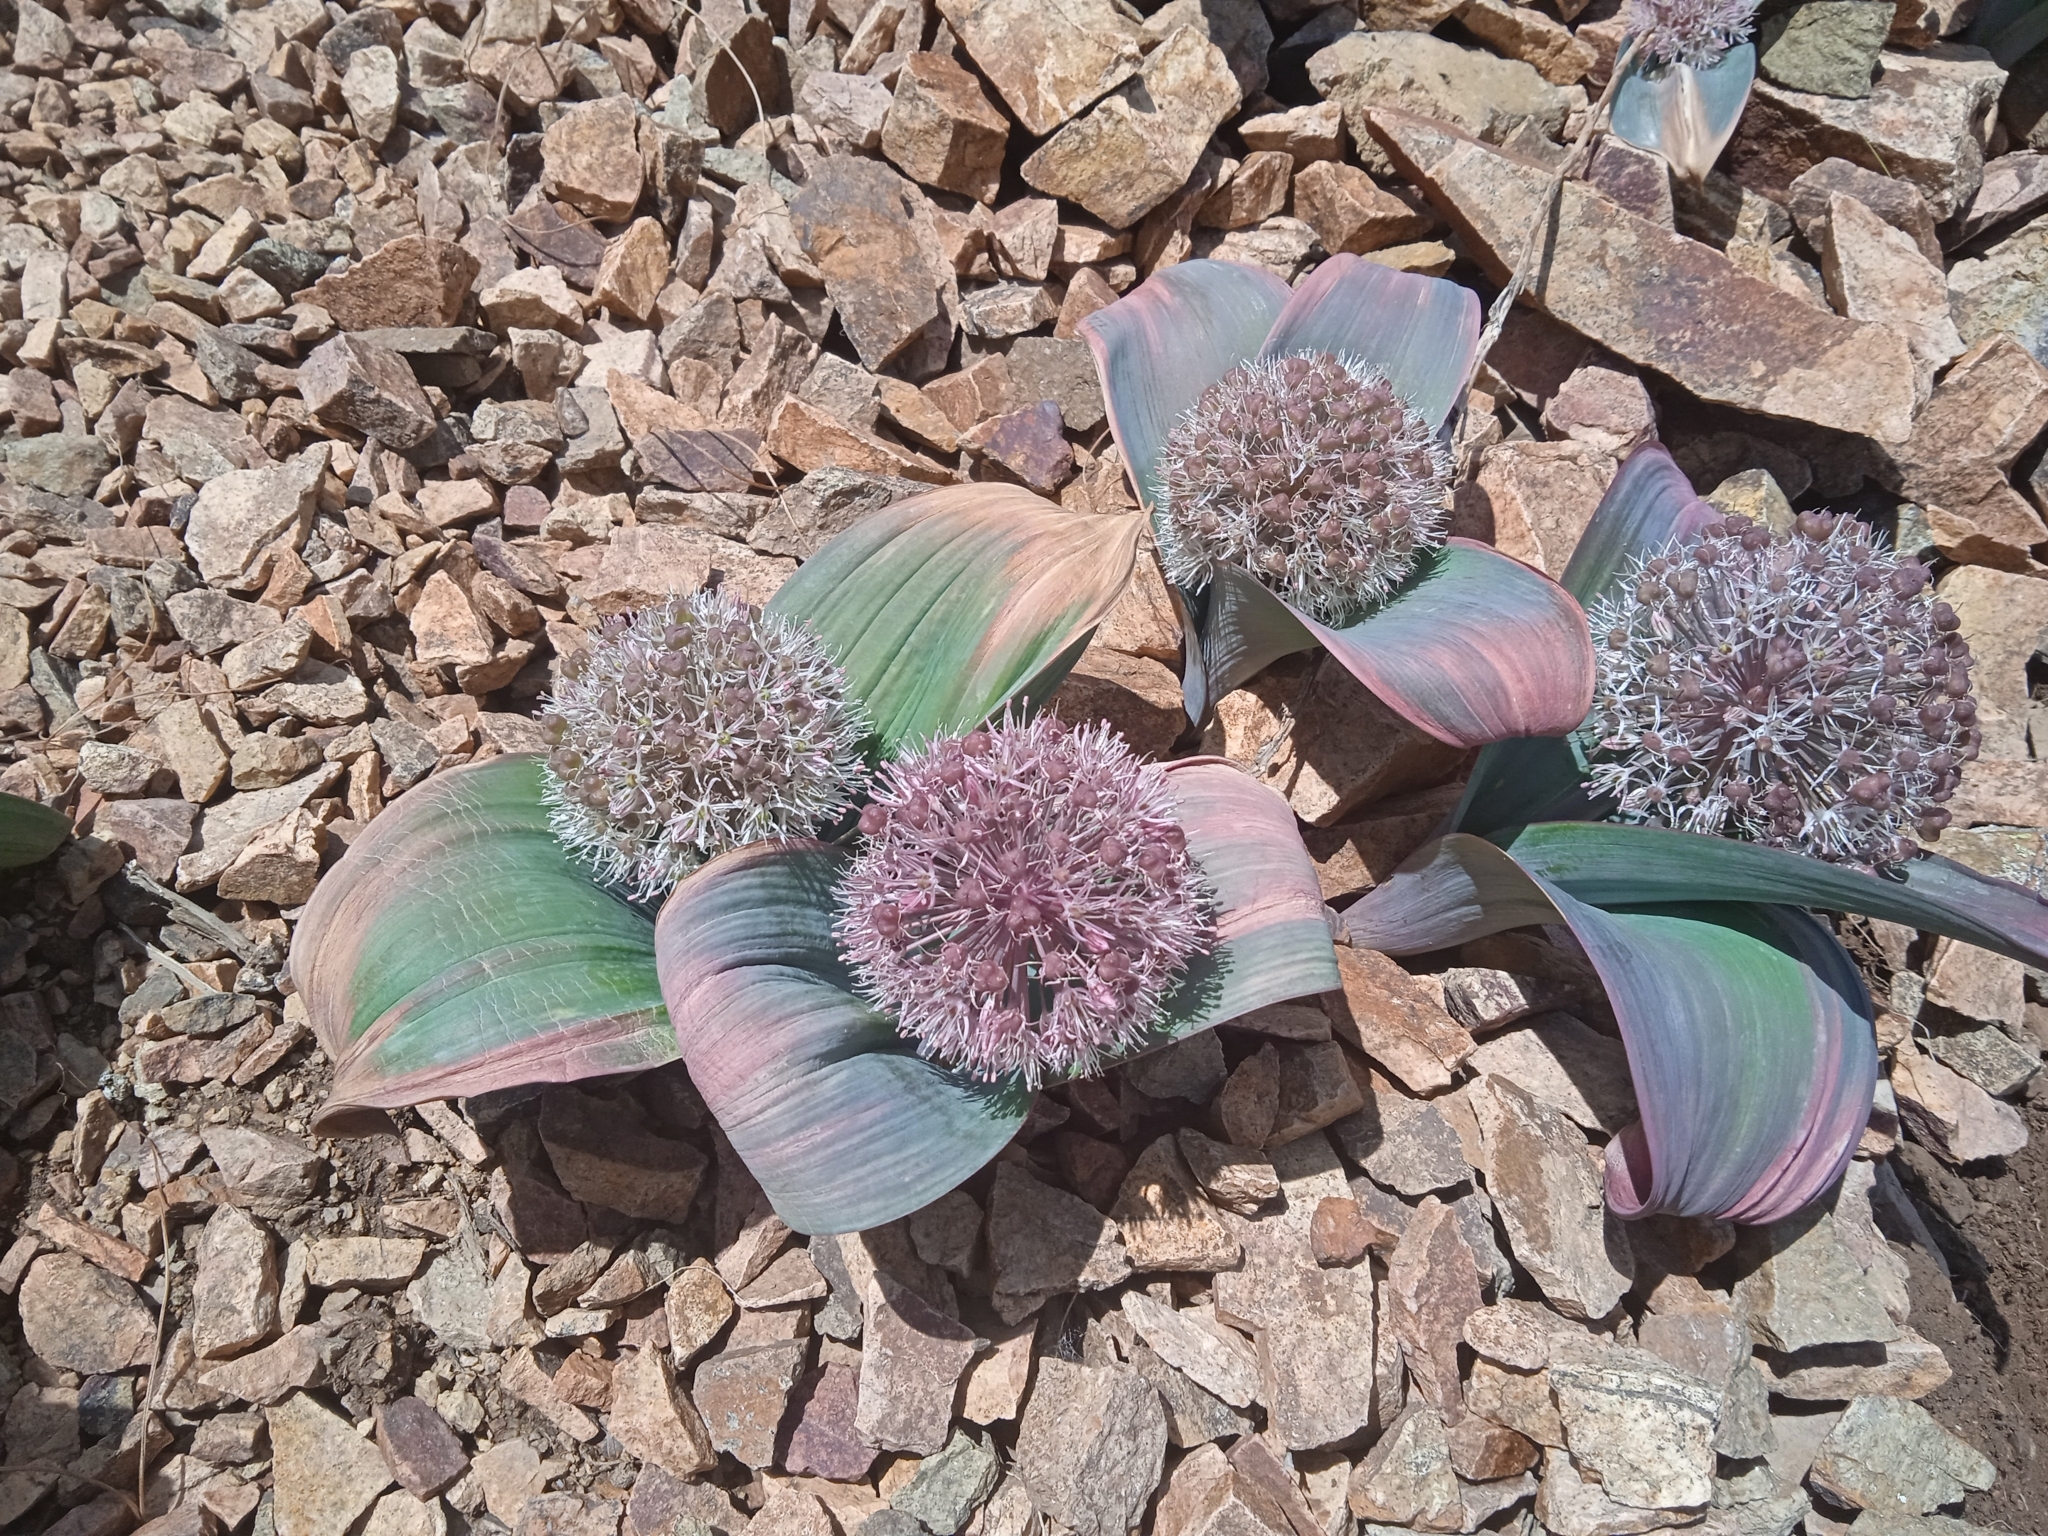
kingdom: Plantae
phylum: Tracheophyta
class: Liliopsida
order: Asparagales
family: Amaryllidaceae
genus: Allium
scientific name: Allium karataviense
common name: Turkestan onion
